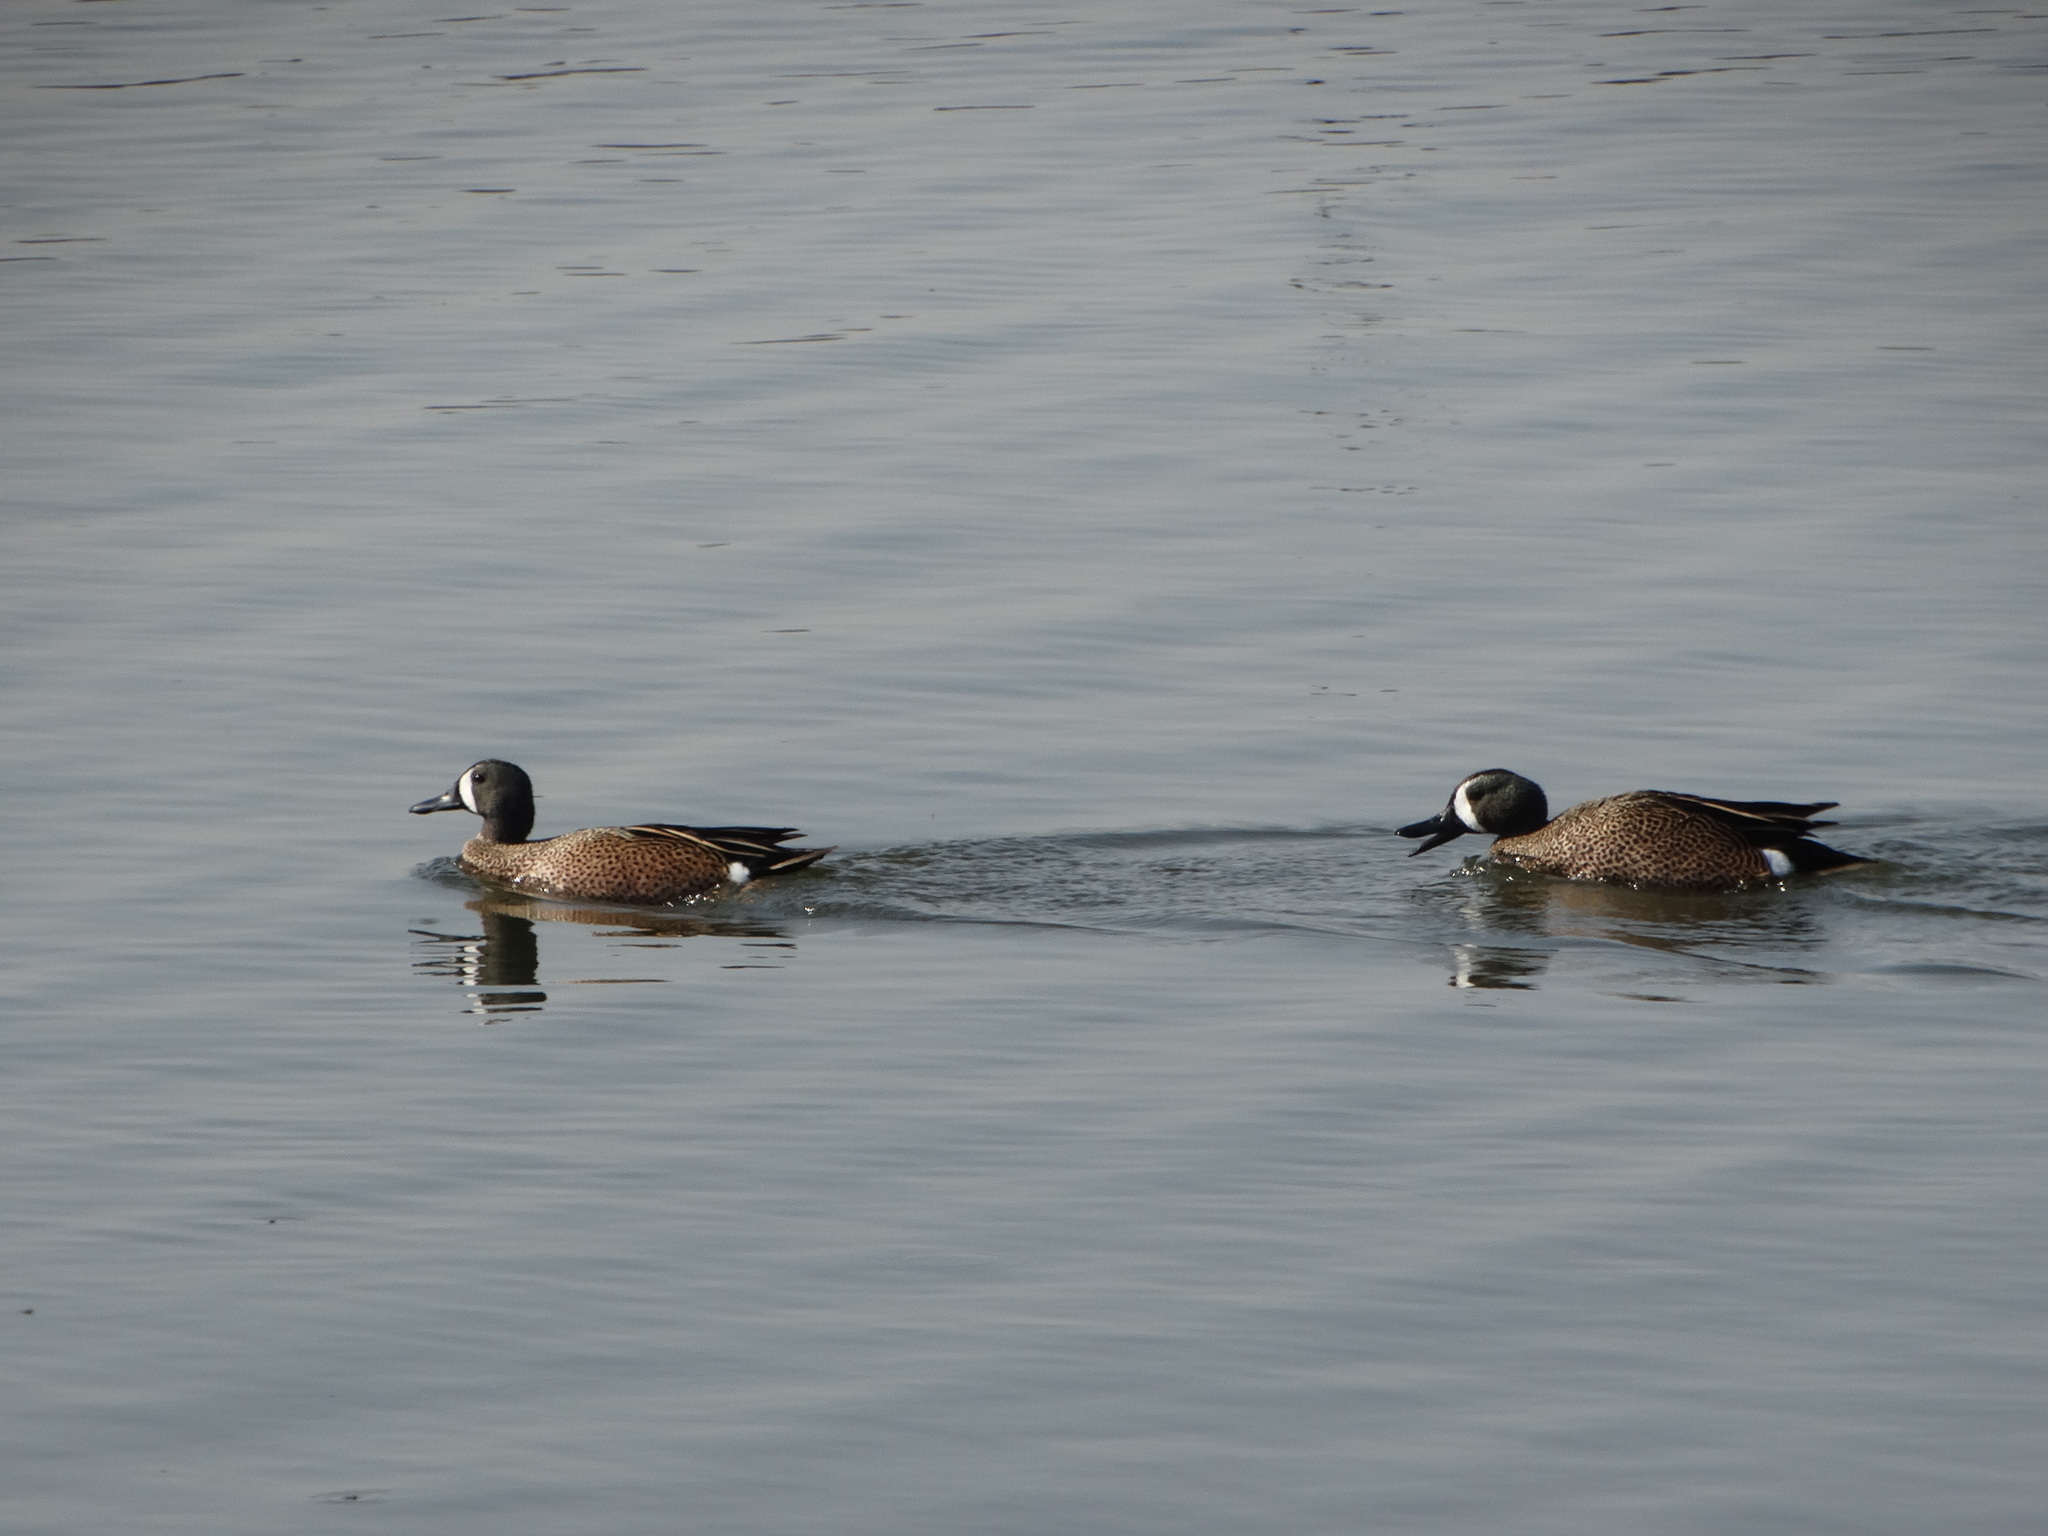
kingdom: Animalia
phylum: Chordata
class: Aves
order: Anseriformes
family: Anatidae
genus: Spatula
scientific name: Spatula discors
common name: Blue-winged teal
